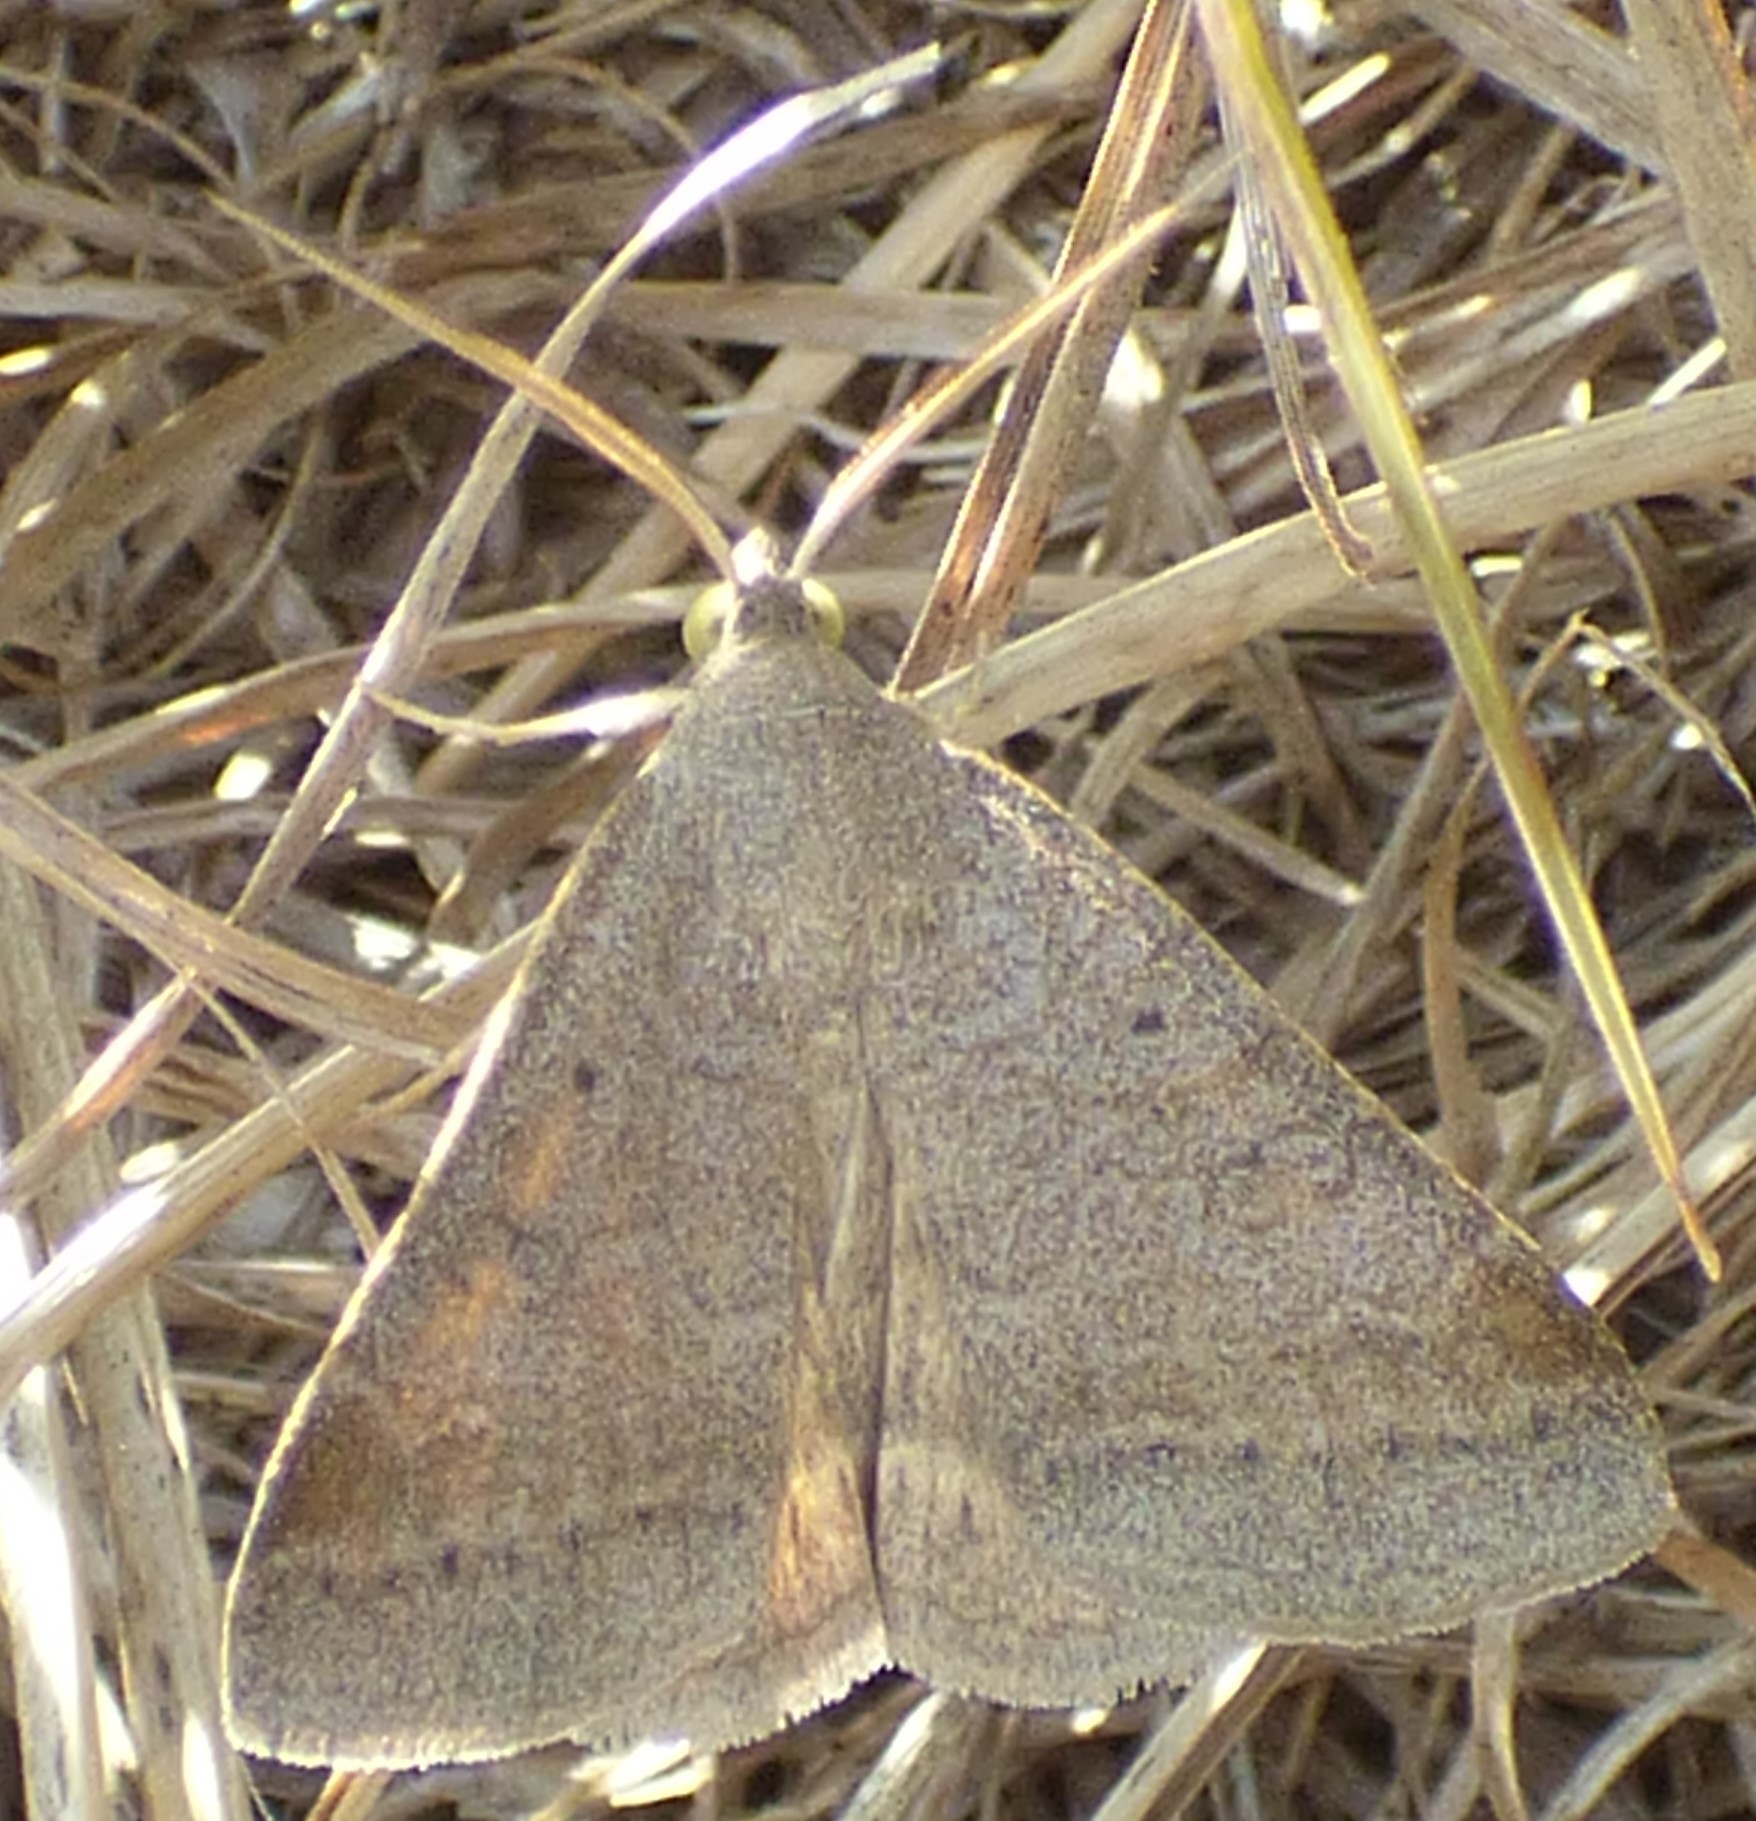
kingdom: Animalia
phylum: Arthropoda
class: Insecta
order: Lepidoptera
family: Erebidae
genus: Caenurgia
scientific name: Caenurgia chloropha
